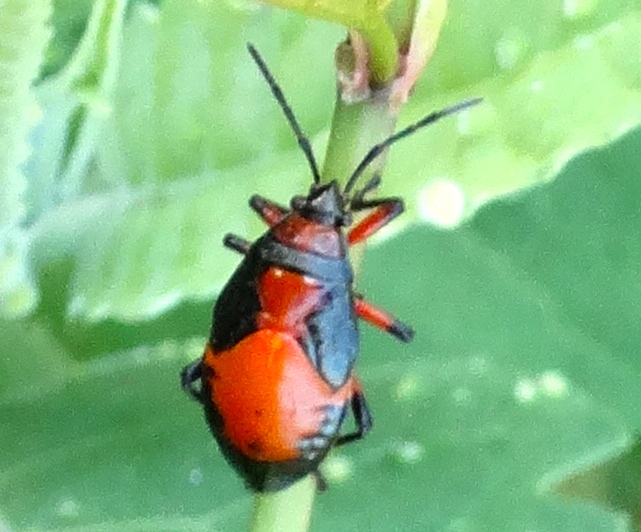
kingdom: Animalia
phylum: Arthropoda
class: Insecta
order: Hemiptera
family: Largidae
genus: Largus
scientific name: Largus
